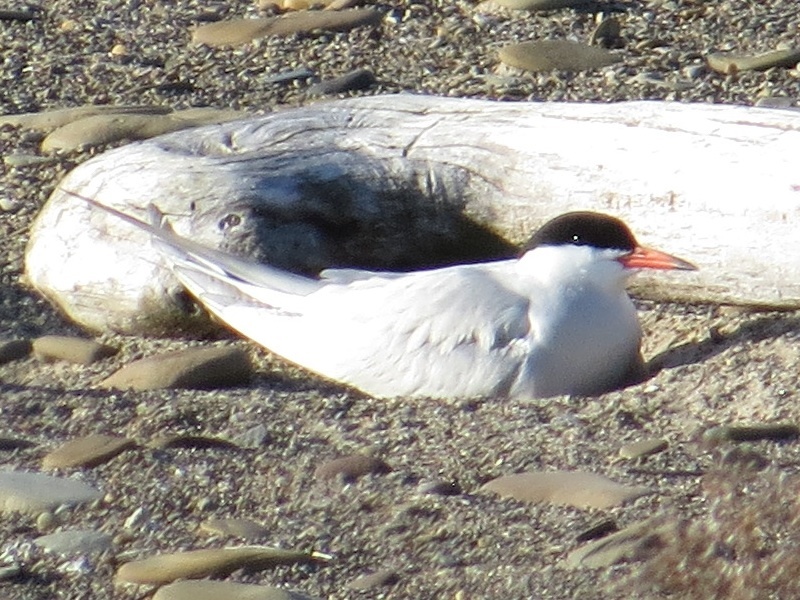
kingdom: Animalia
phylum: Chordata
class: Aves
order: Charadriiformes
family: Laridae
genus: Sterna
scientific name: Sterna hirundo
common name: Common tern
